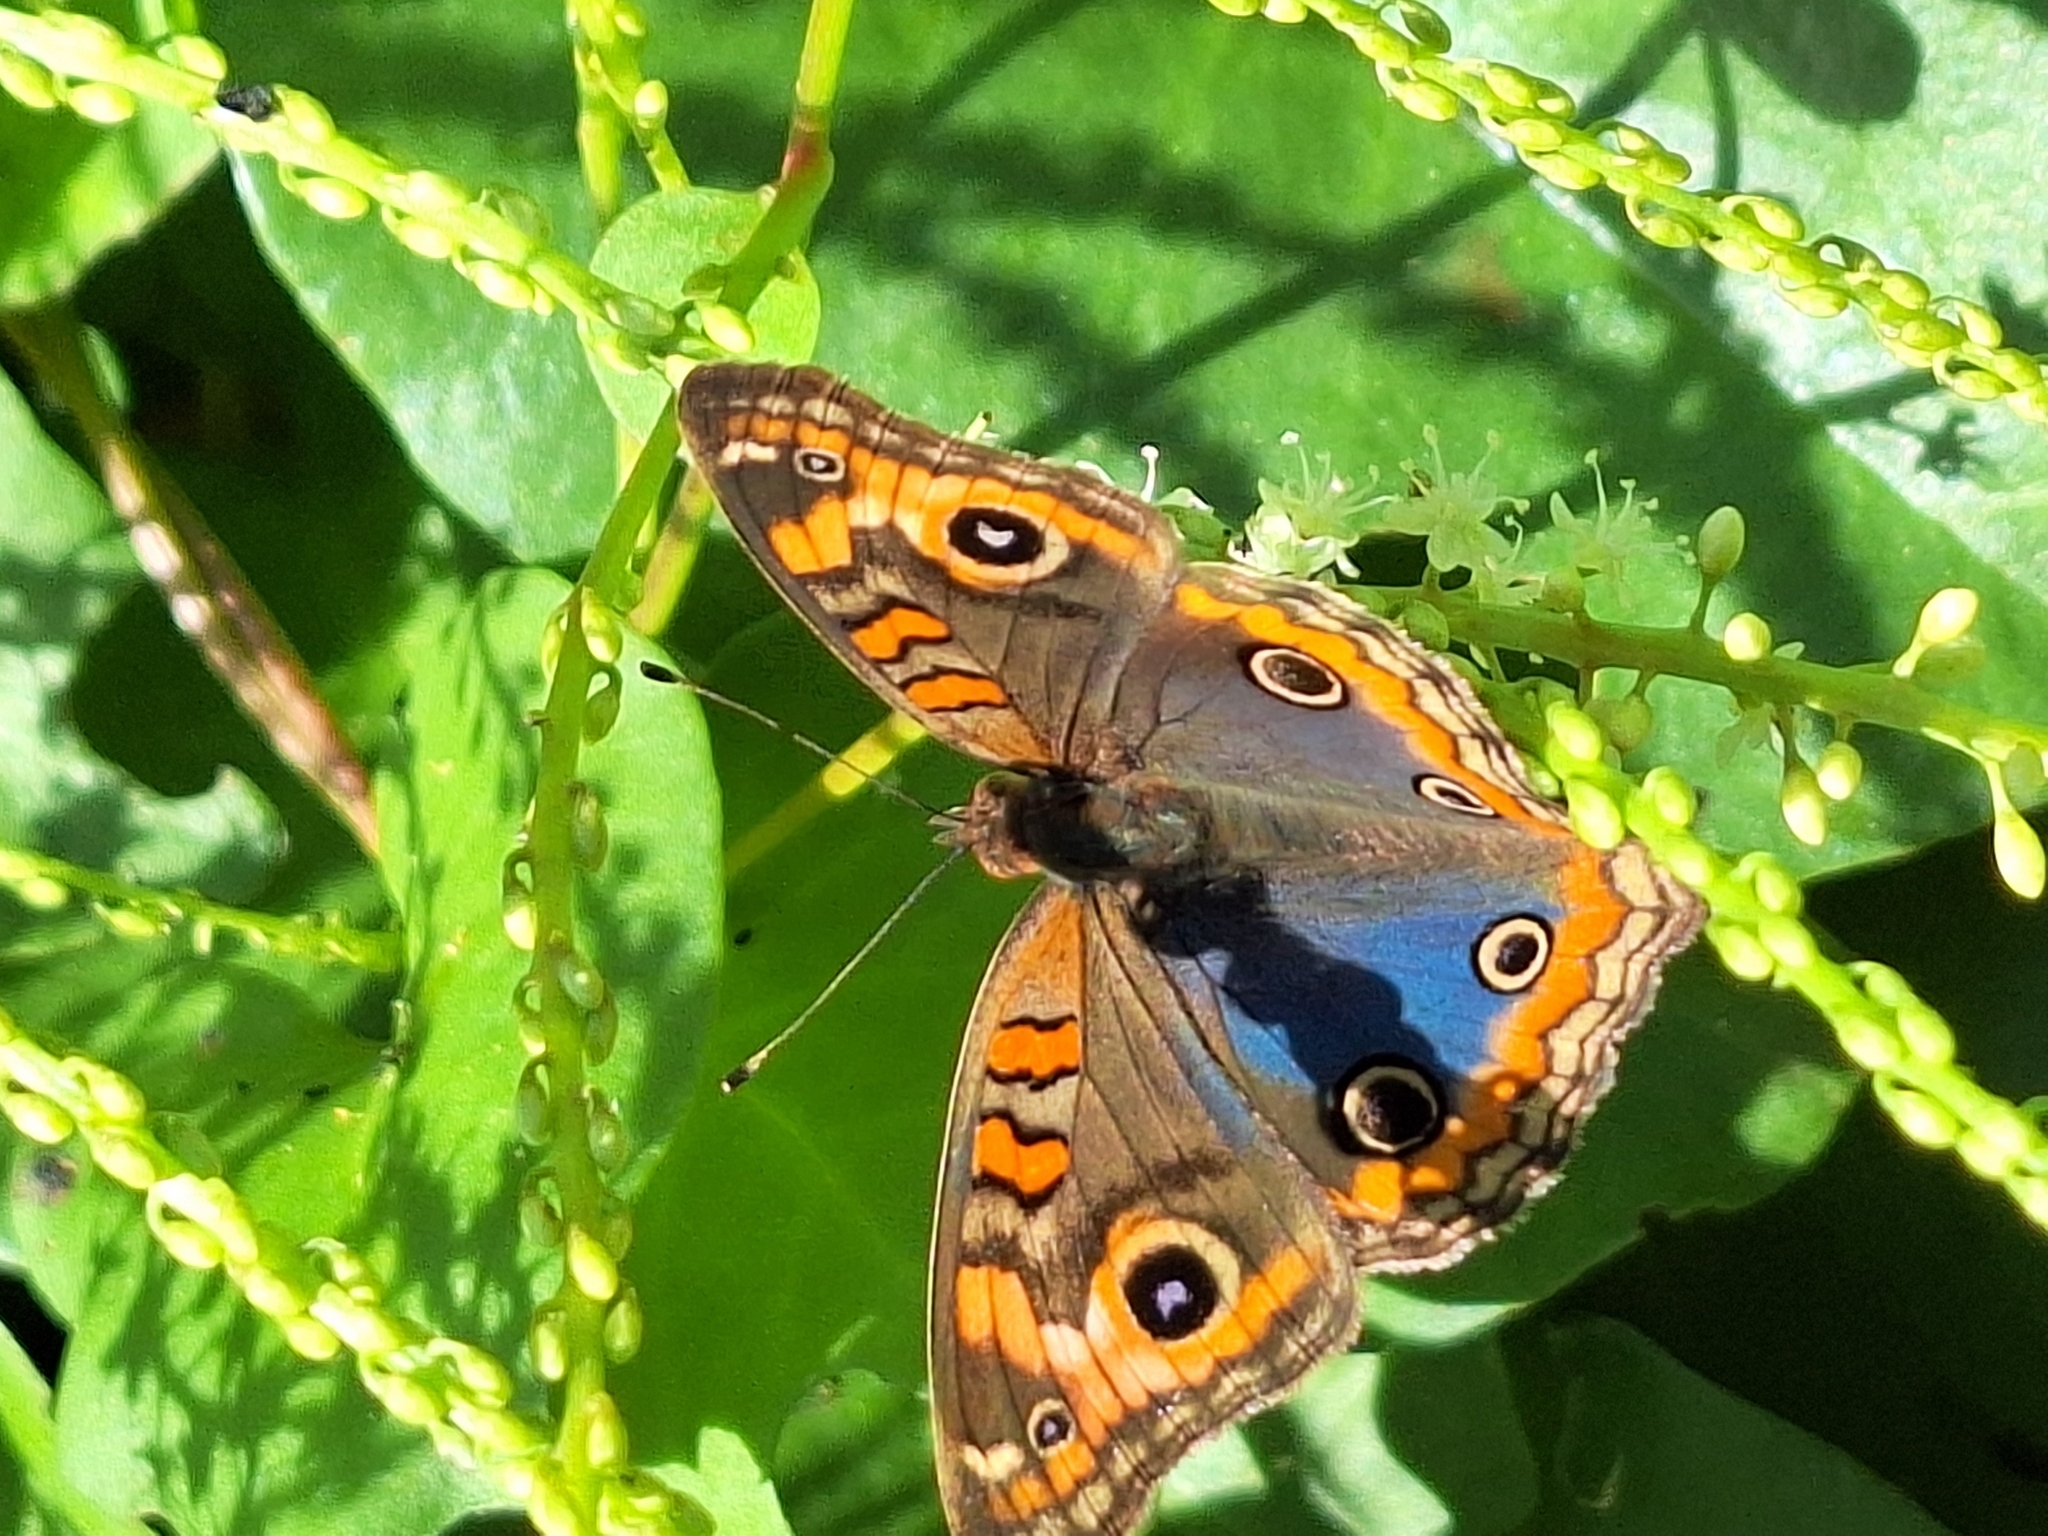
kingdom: Animalia
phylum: Arthropoda
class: Insecta
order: Lepidoptera
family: Nymphalidae
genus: Junonia
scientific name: Junonia lavinia
